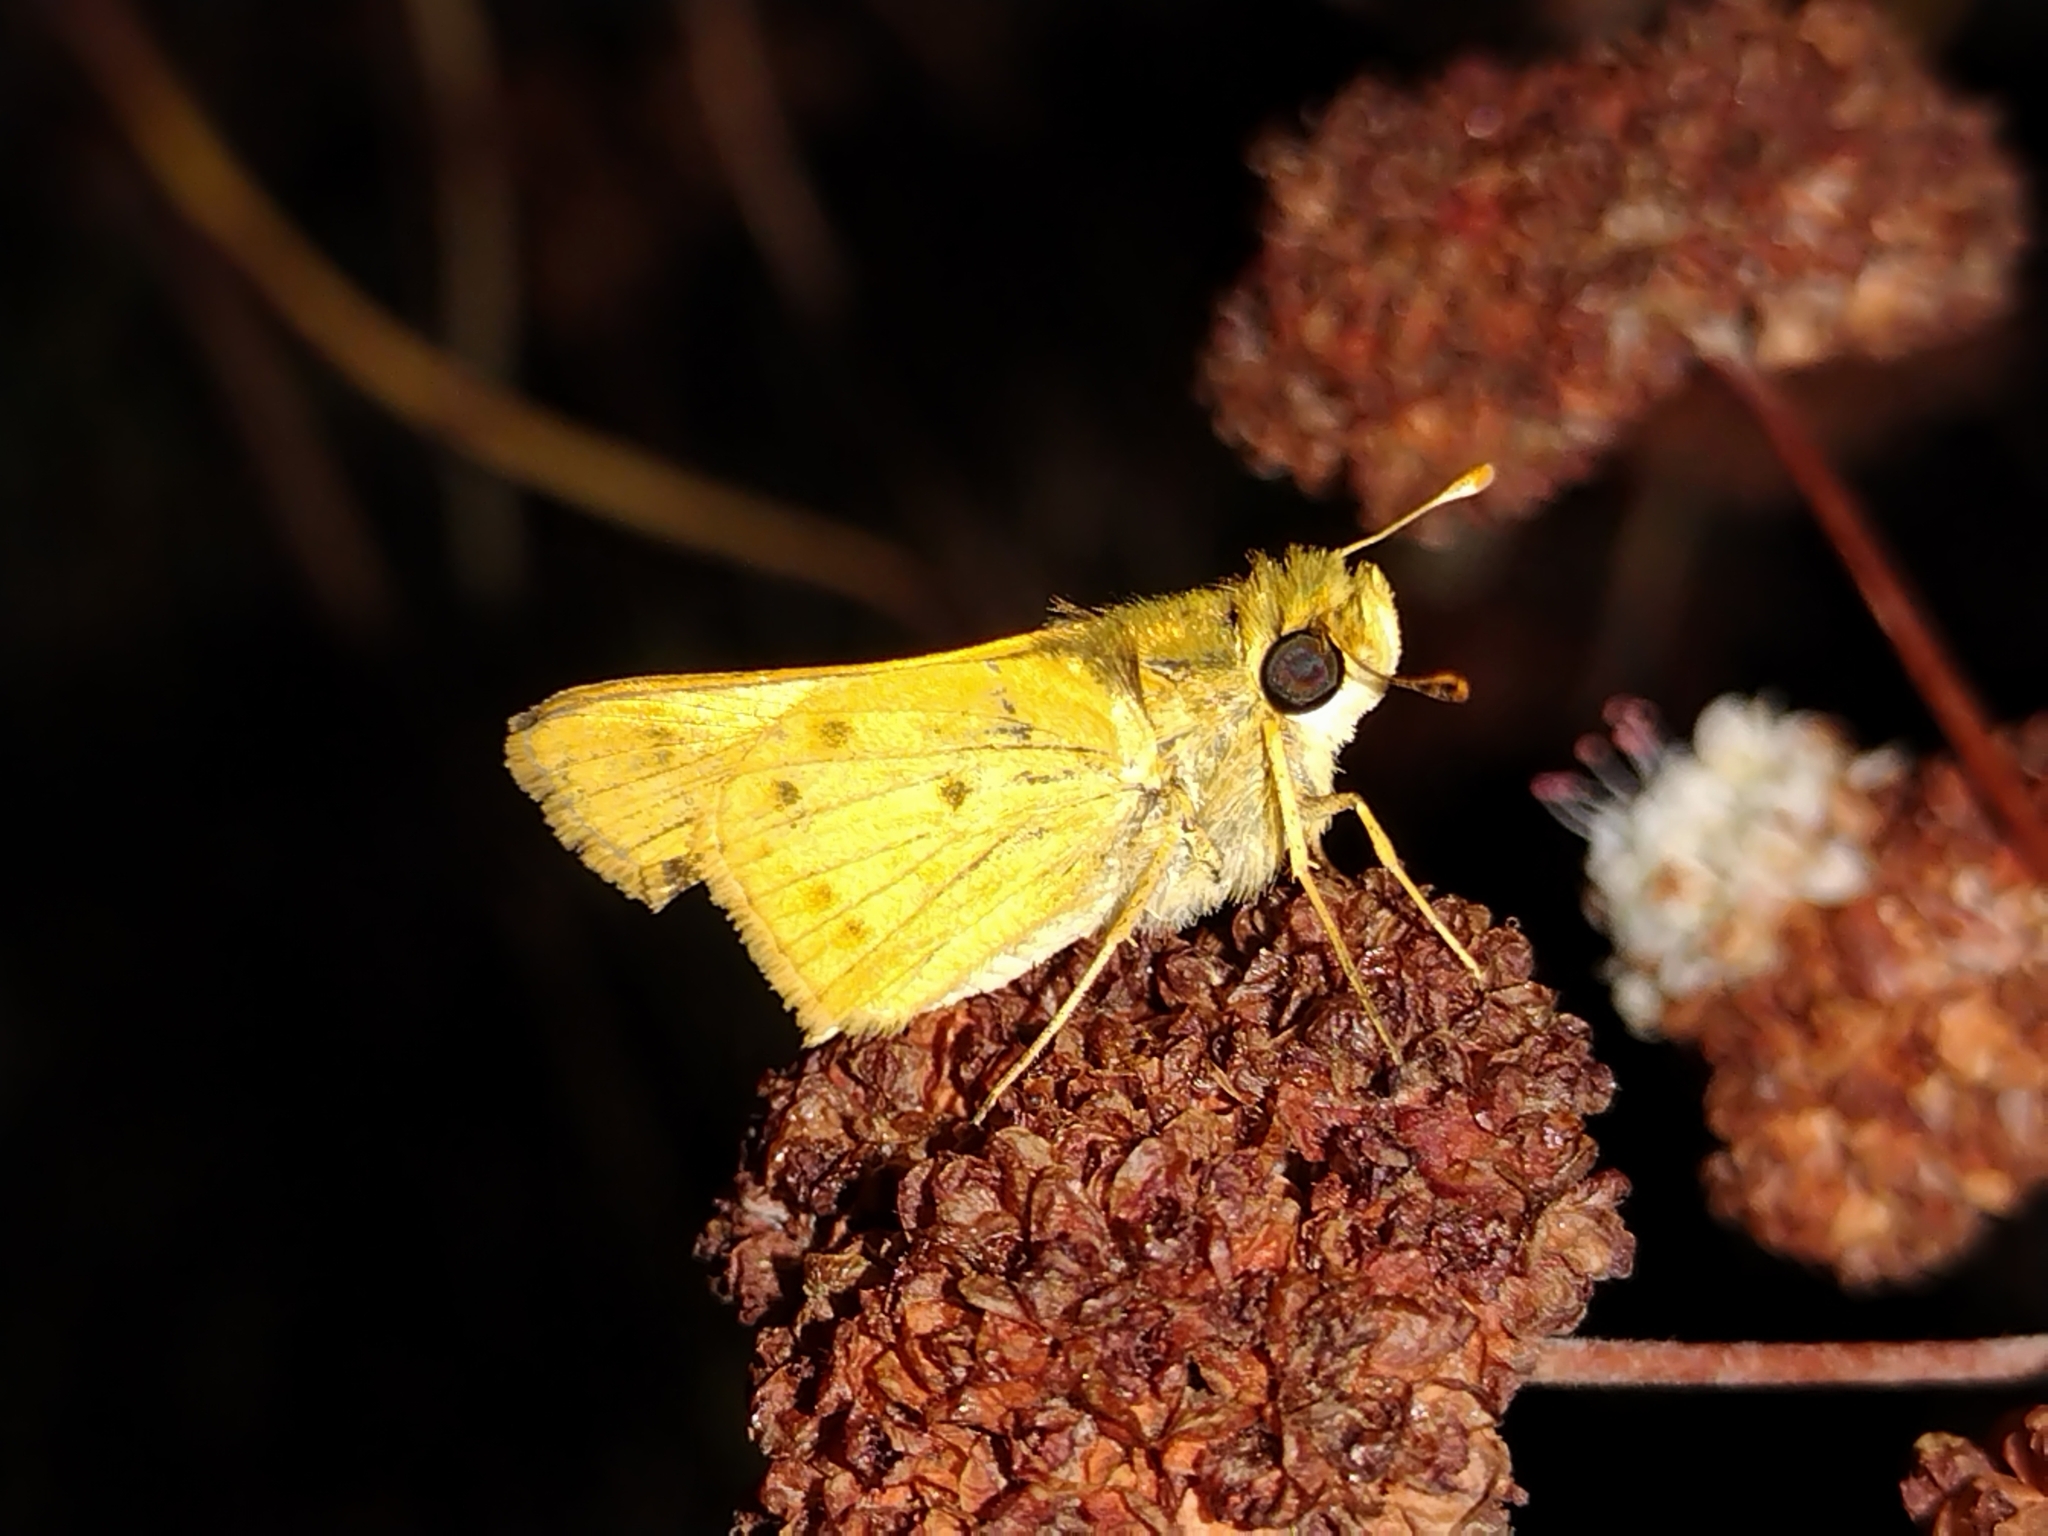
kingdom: Animalia
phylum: Arthropoda
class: Insecta
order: Lepidoptera
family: Hesperiidae
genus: Hylephila
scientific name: Hylephila phyleus
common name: Fiery skipper
